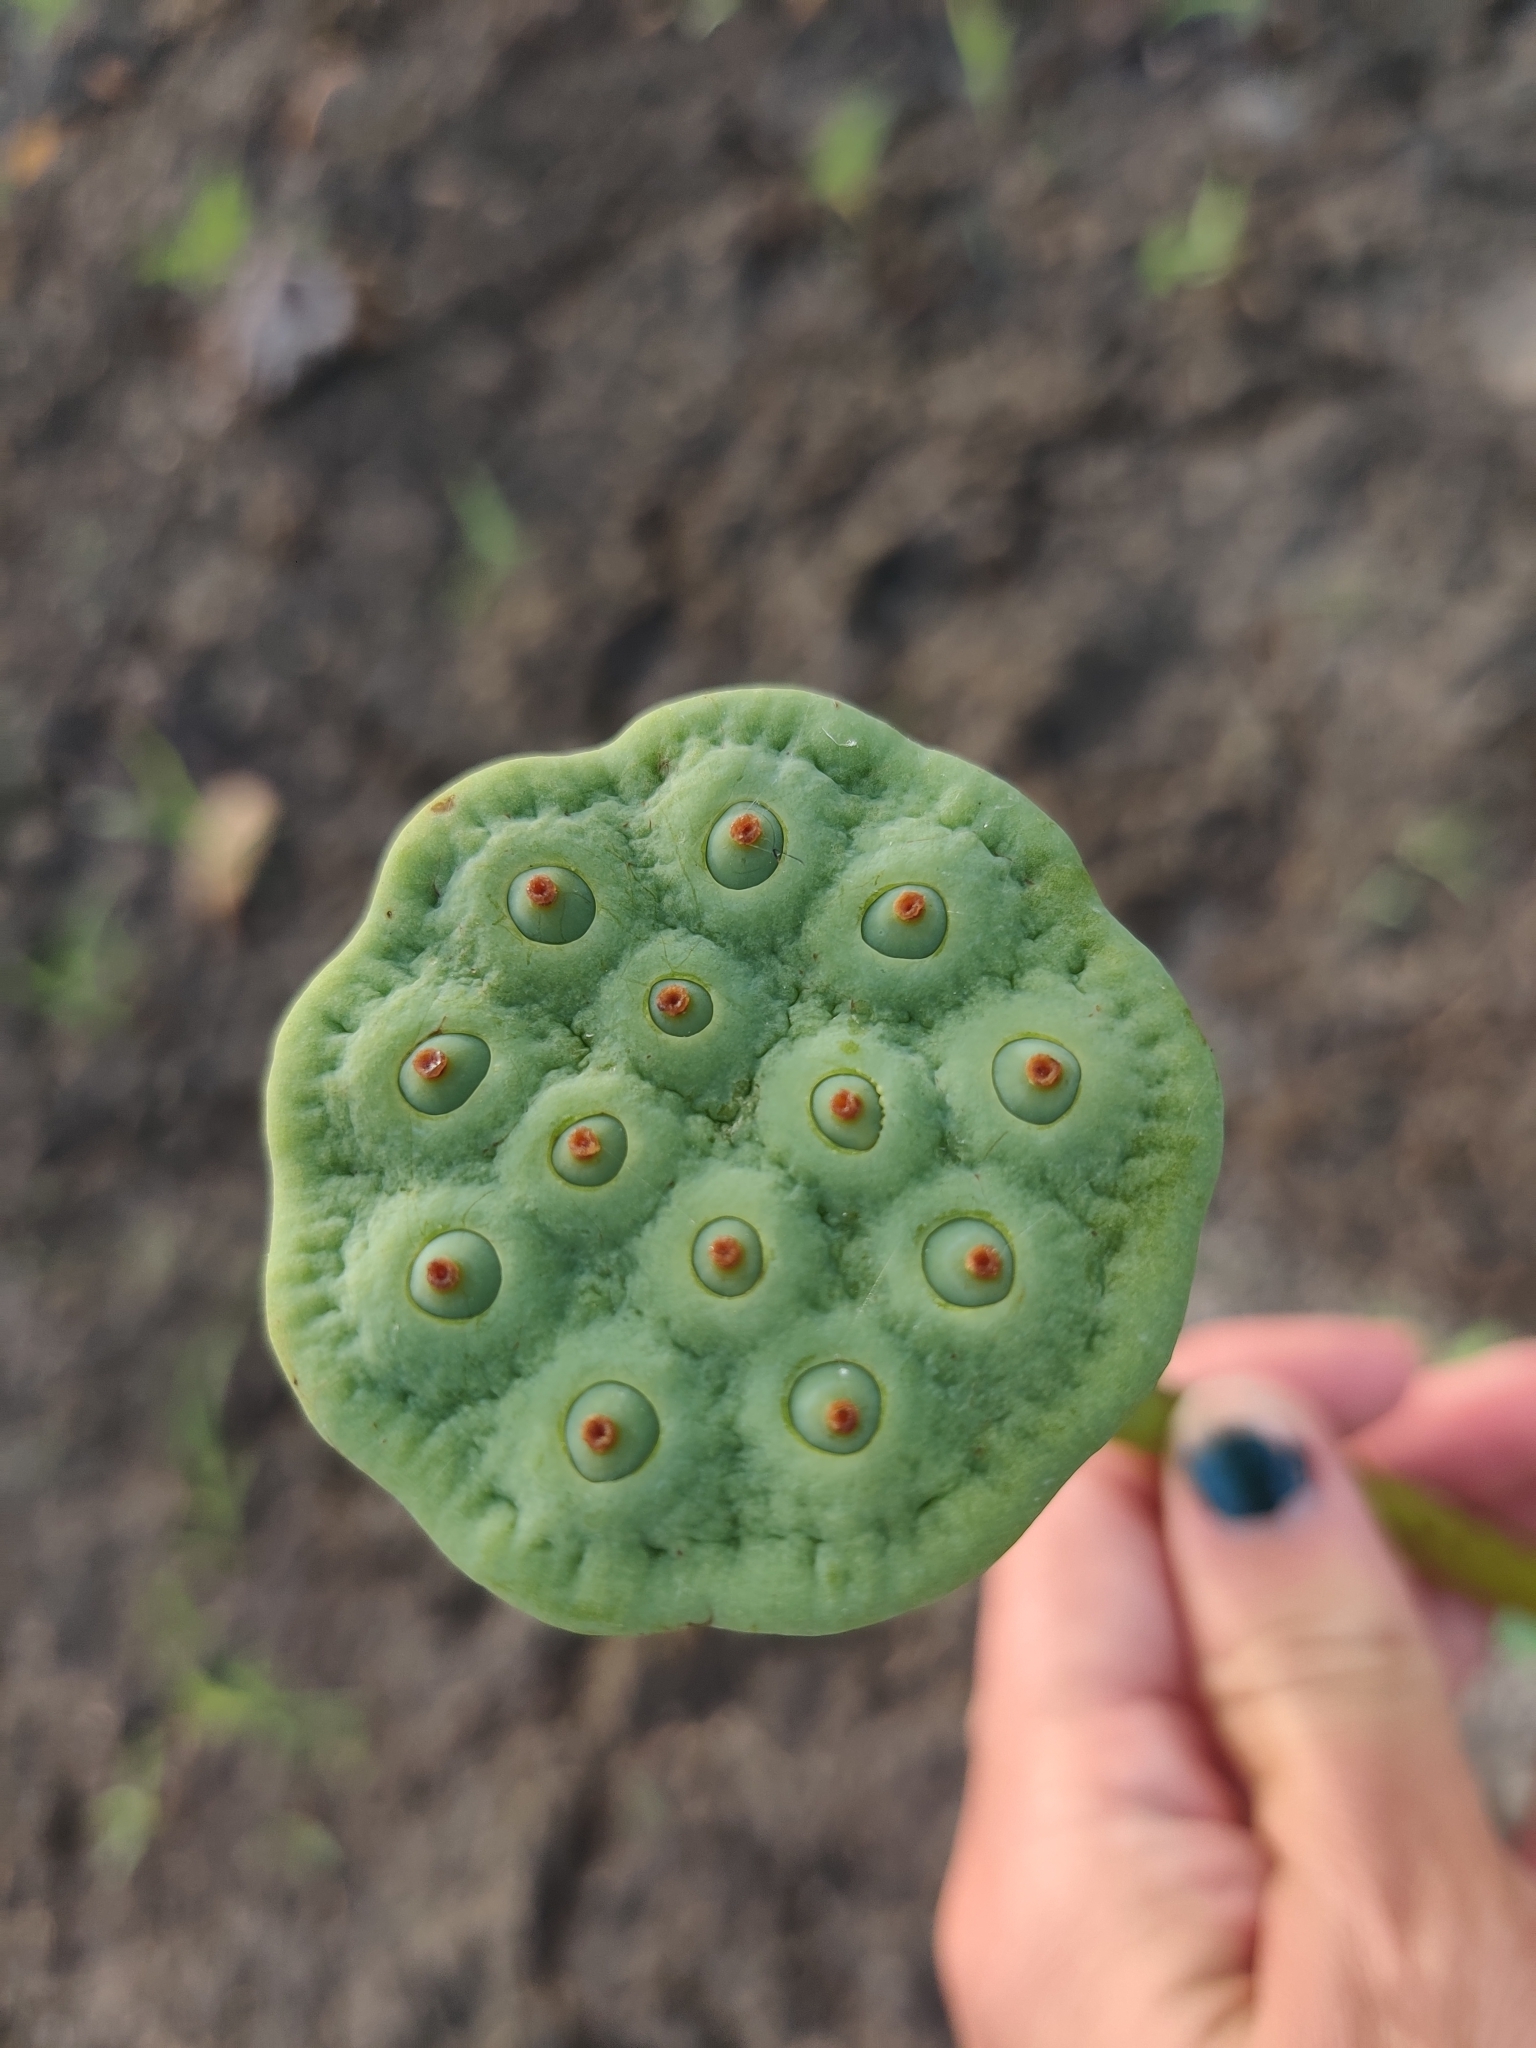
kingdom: Plantae
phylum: Tracheophyta
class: Magnoliopsida
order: Proteales
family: Nelumbonaceae
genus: Nelumbo
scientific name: Nelumbo lutea
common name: American lotus
